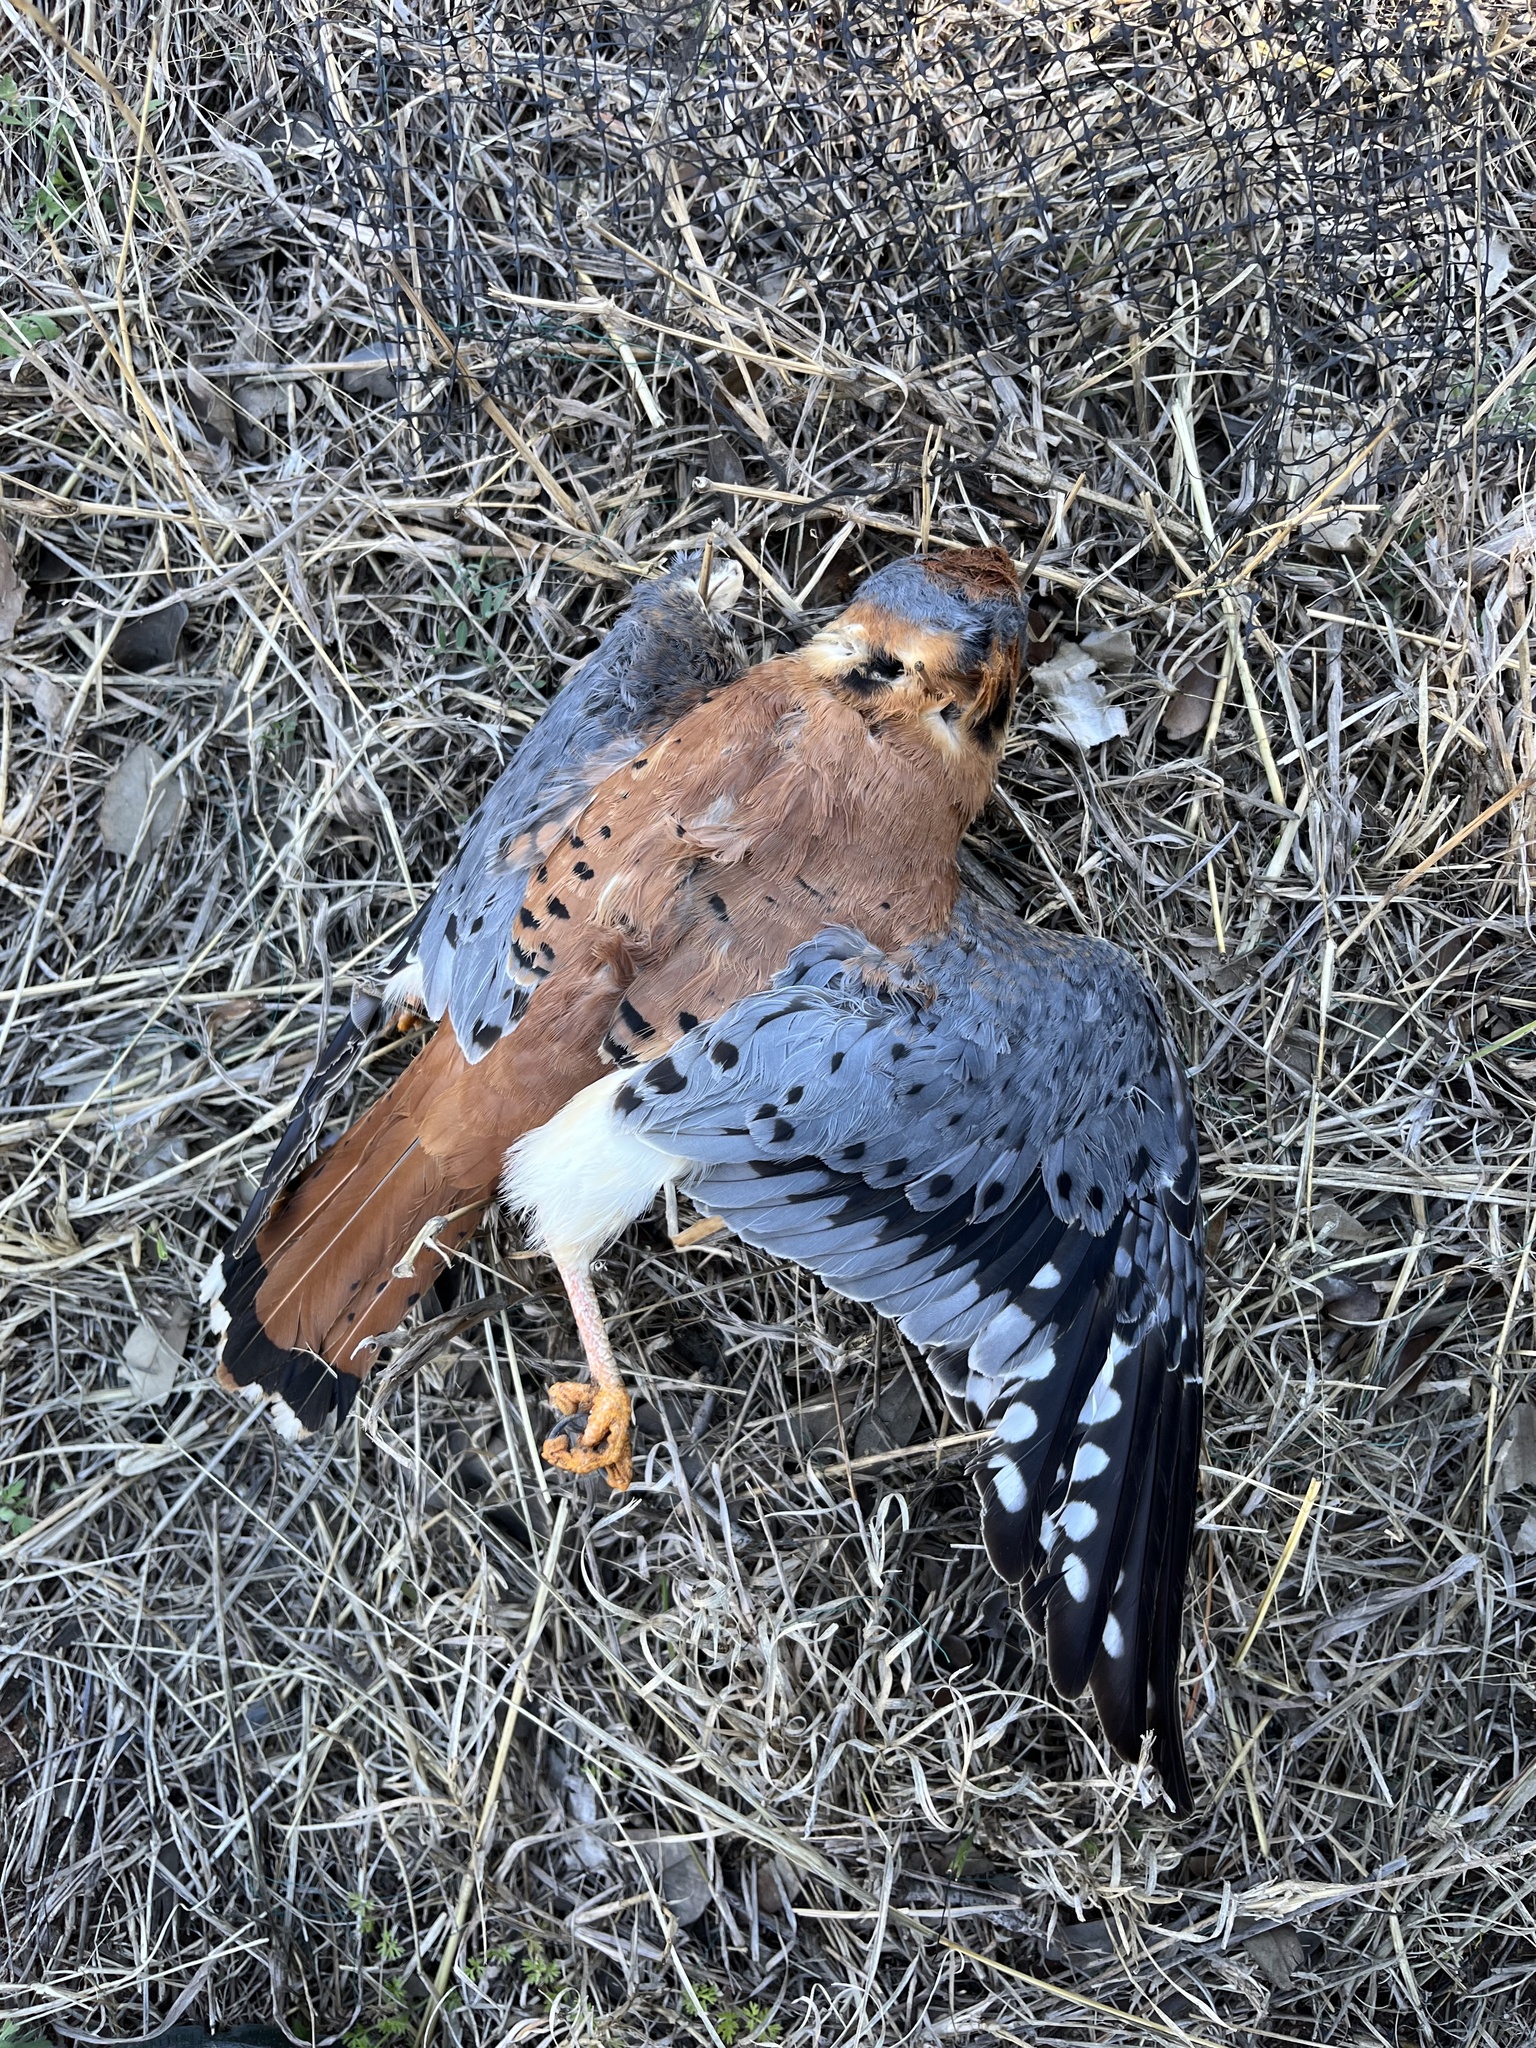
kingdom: Animalia
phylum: Chordata
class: Aves
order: Falconiformes
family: Falconidae
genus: Falco
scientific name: Falco sparverius
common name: American kestrel
